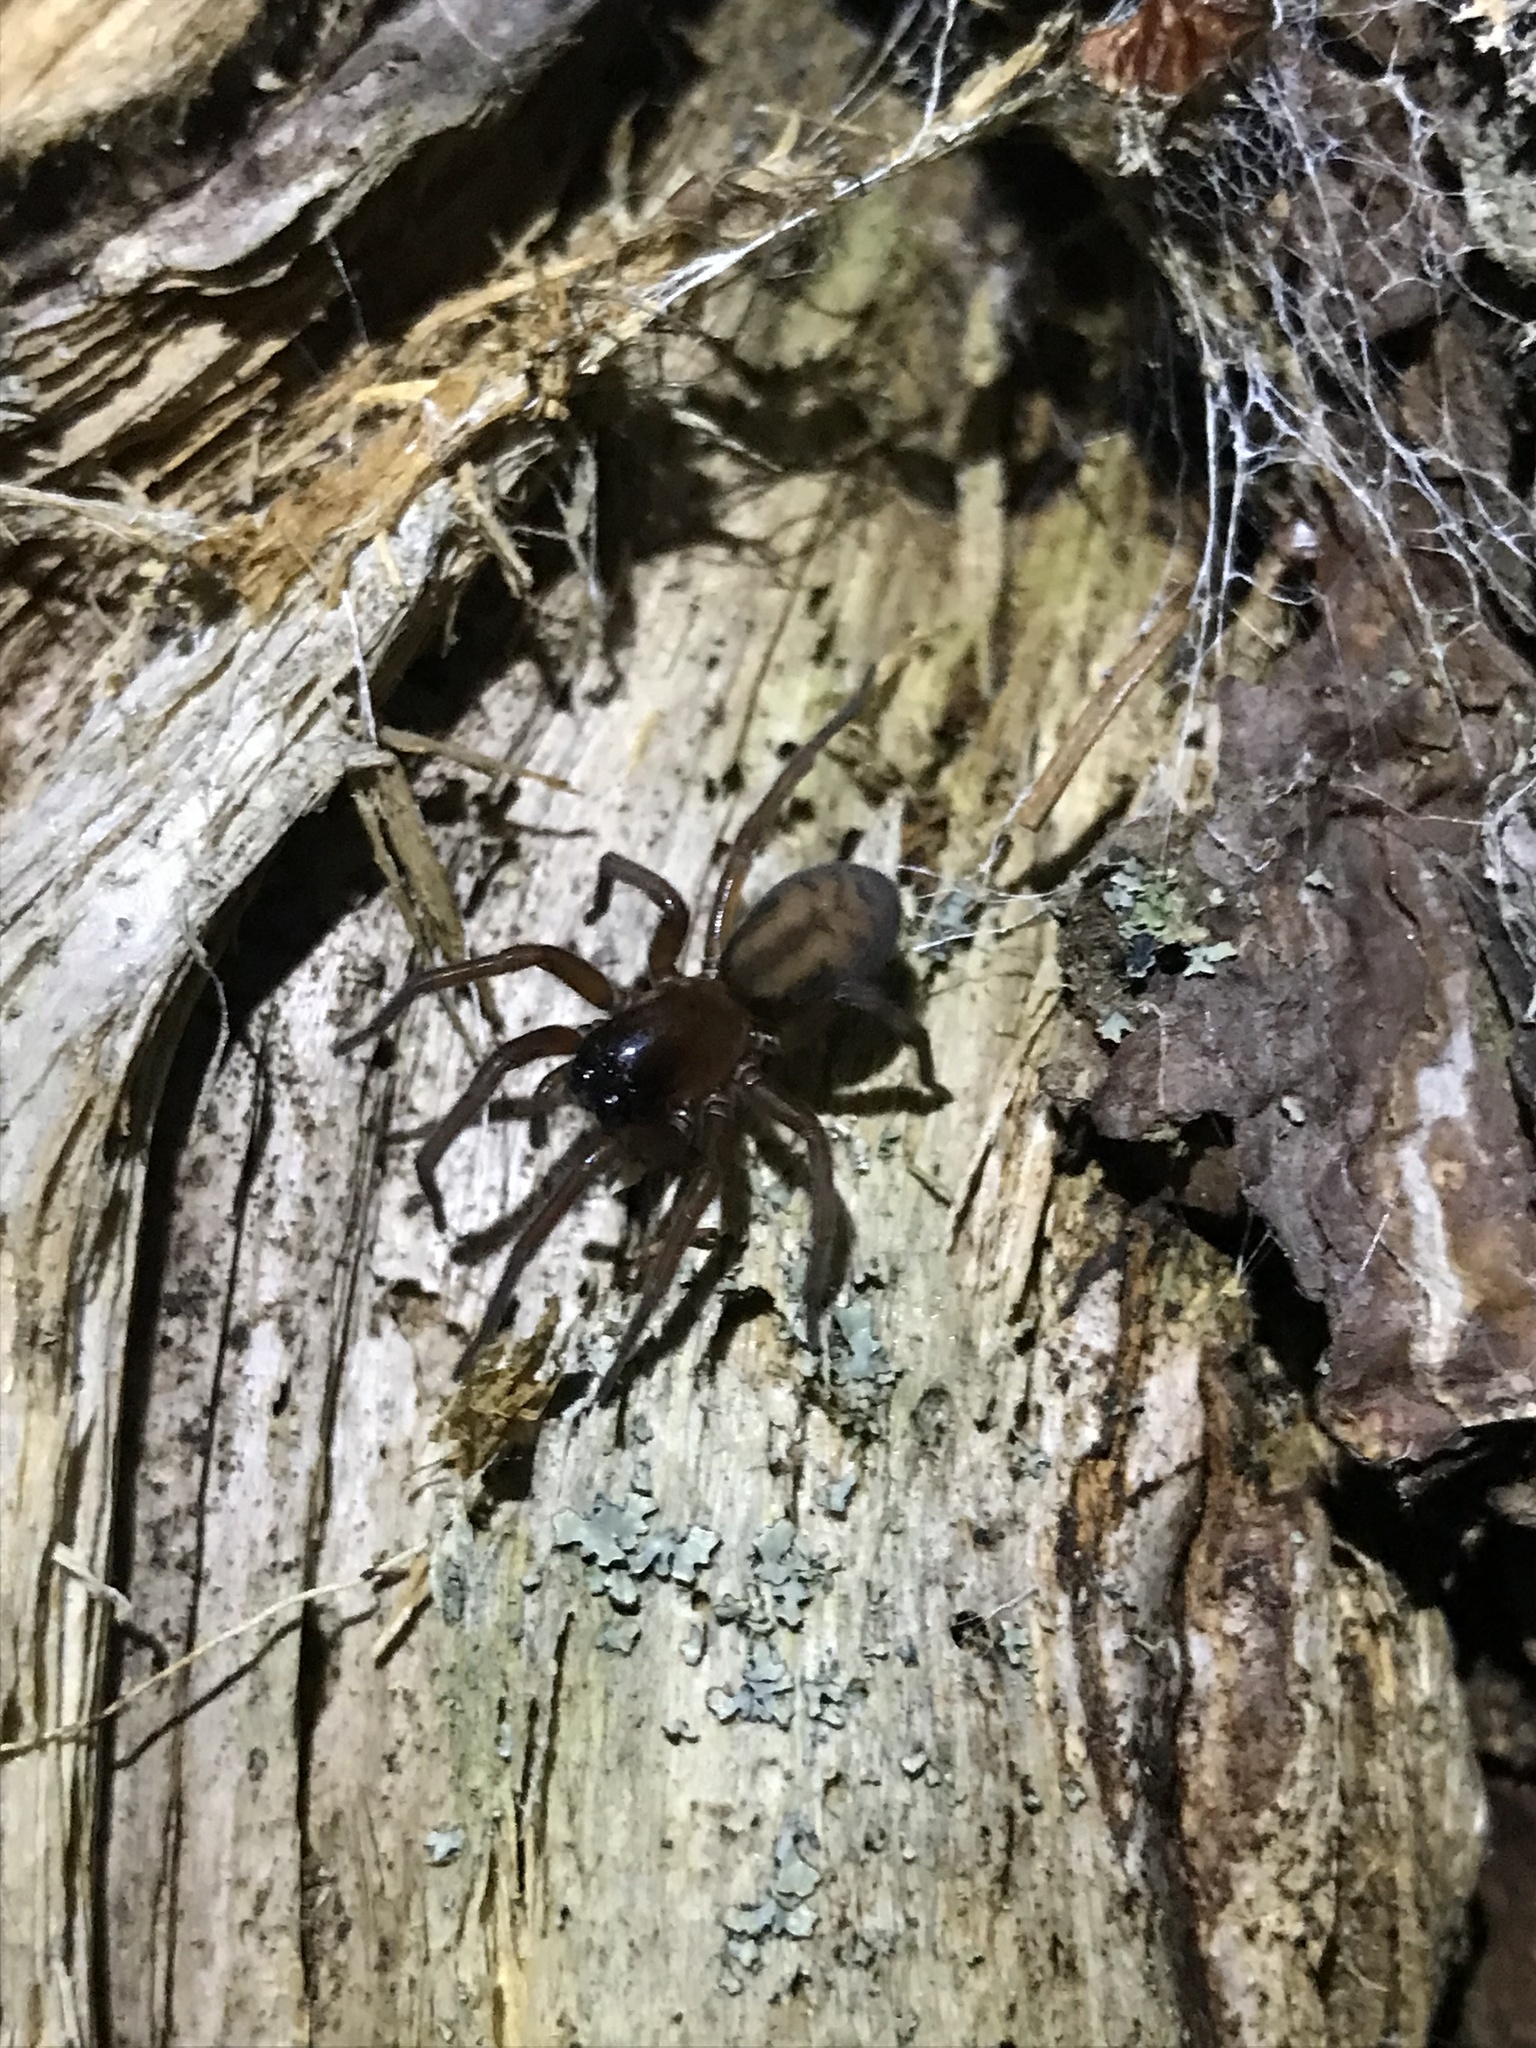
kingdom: Animalia
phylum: Arthropoda
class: Arachnida
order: Araneae
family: Amaurobiidae
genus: Callobius
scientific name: Callobius bennetti
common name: Bennett's laceweaver
